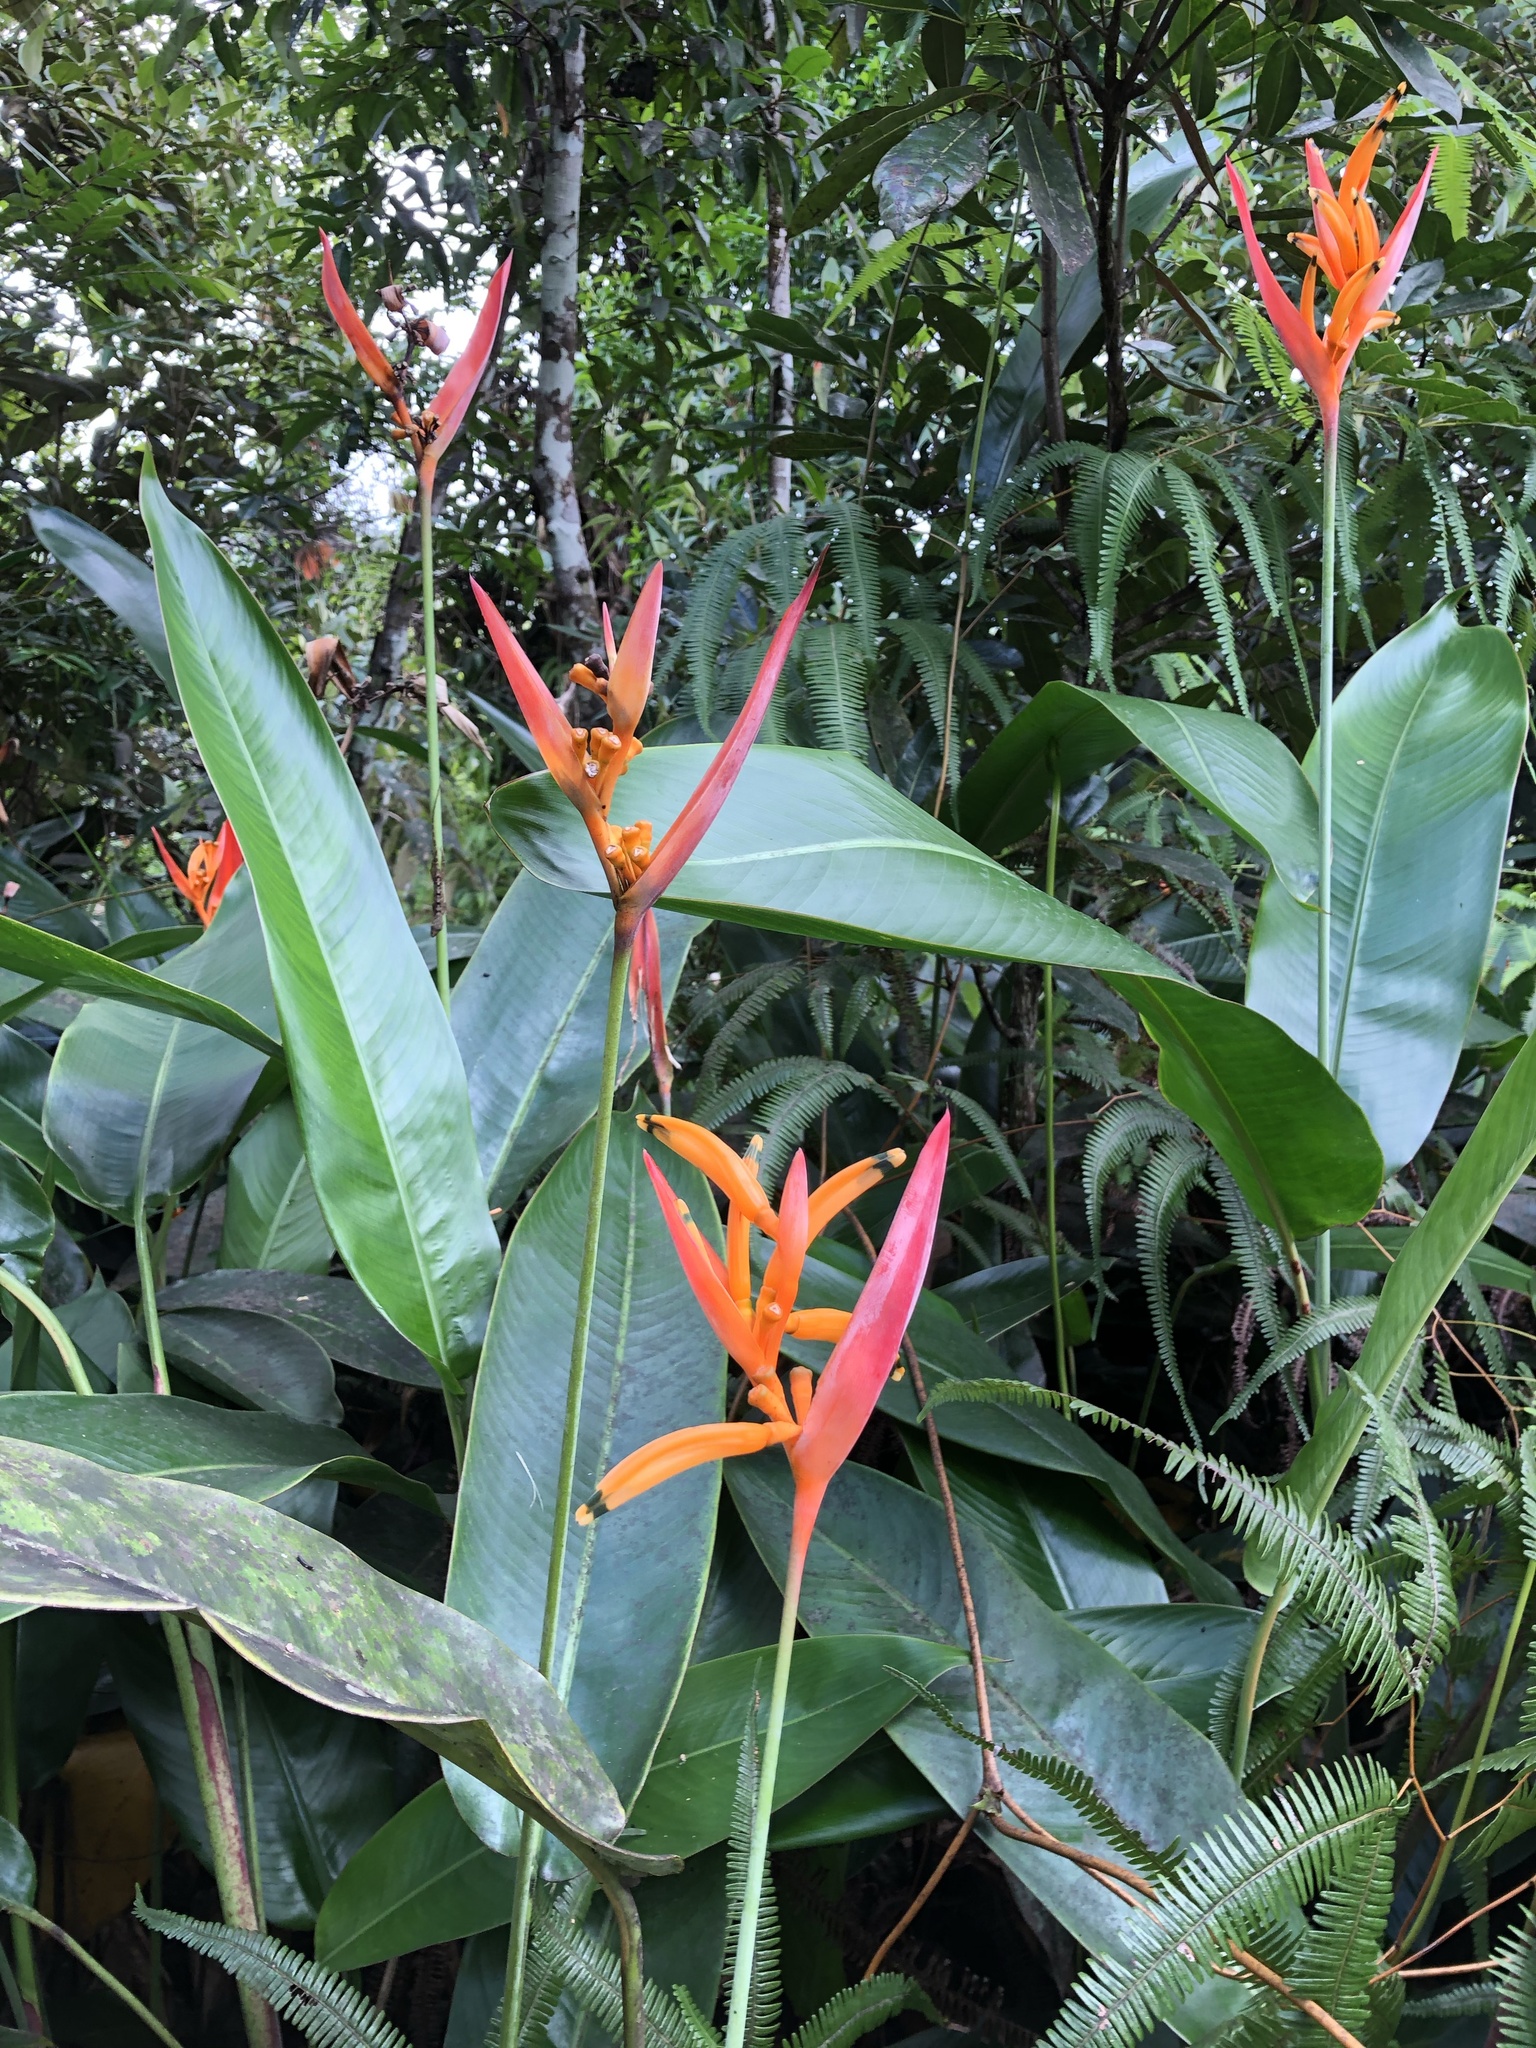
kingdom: Plantae
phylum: Tracheophyta
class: Liliopsida
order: Zingiberales
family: Heliconiaceae
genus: Heliconia
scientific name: Heliconia psittacorum
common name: Parrot's-flower
